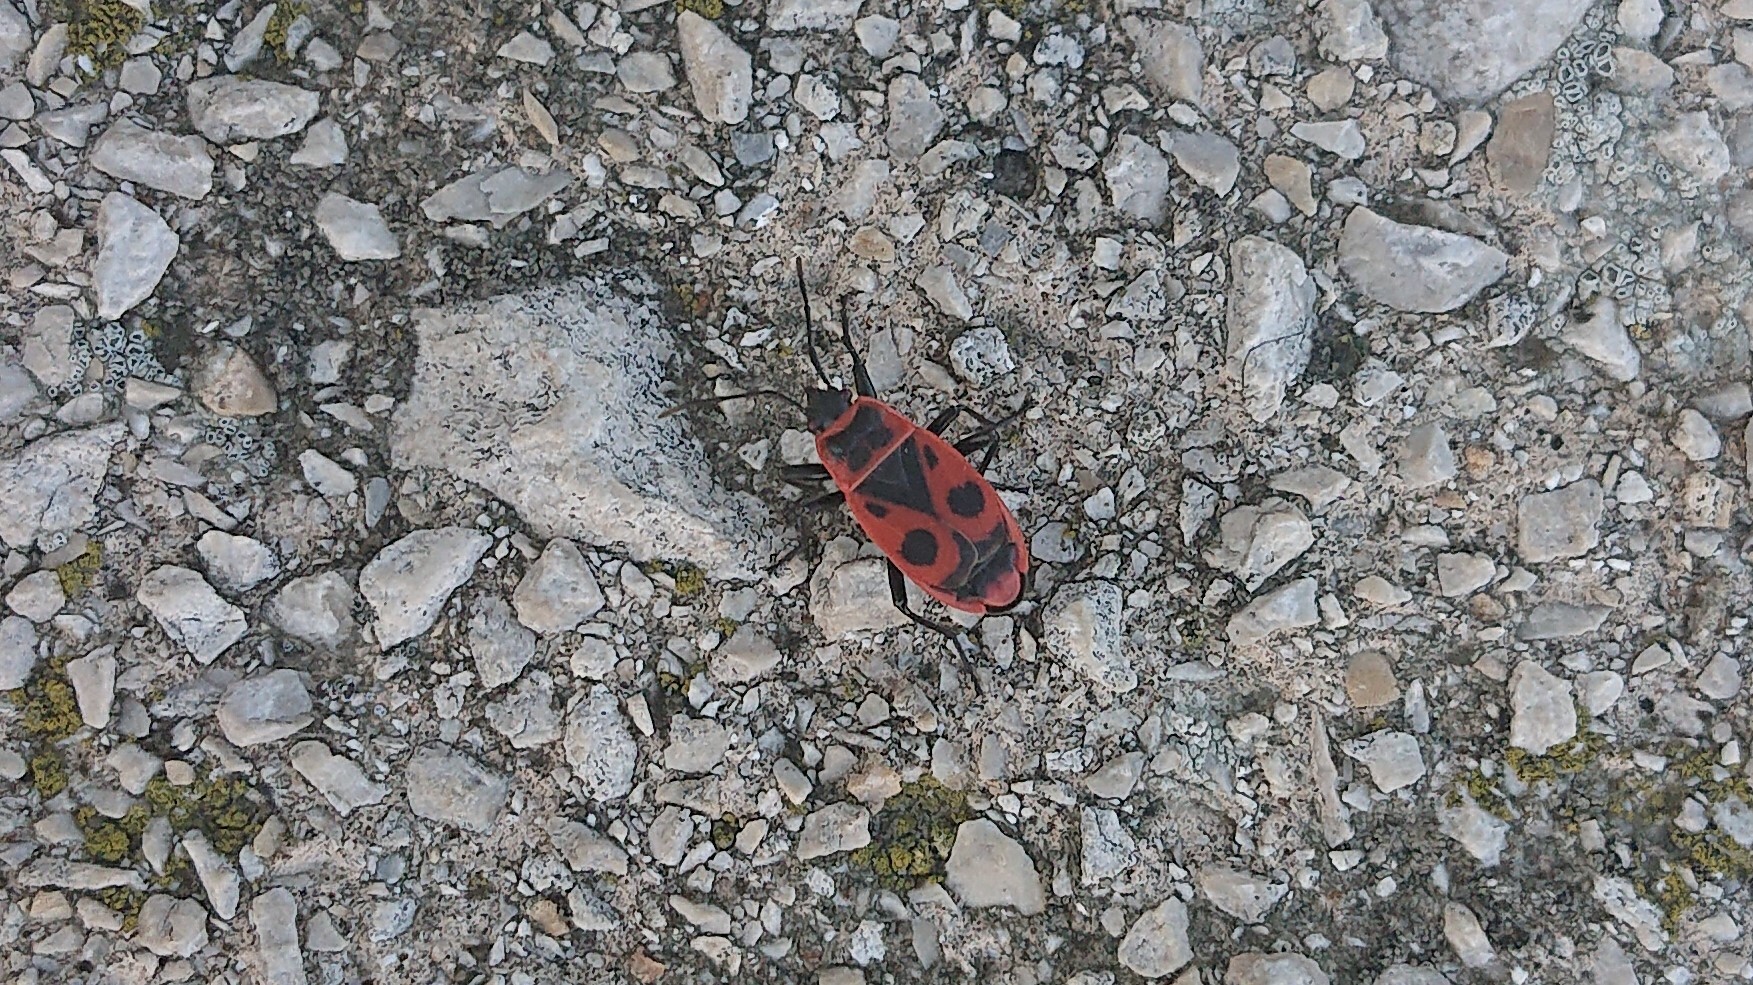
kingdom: Animalia
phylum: Arthropoda
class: Insecta
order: Hemiptera
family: Pyrrhocoridae
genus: Pyrrhocoris
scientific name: Pyrrhocoris apterus
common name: Firebug
